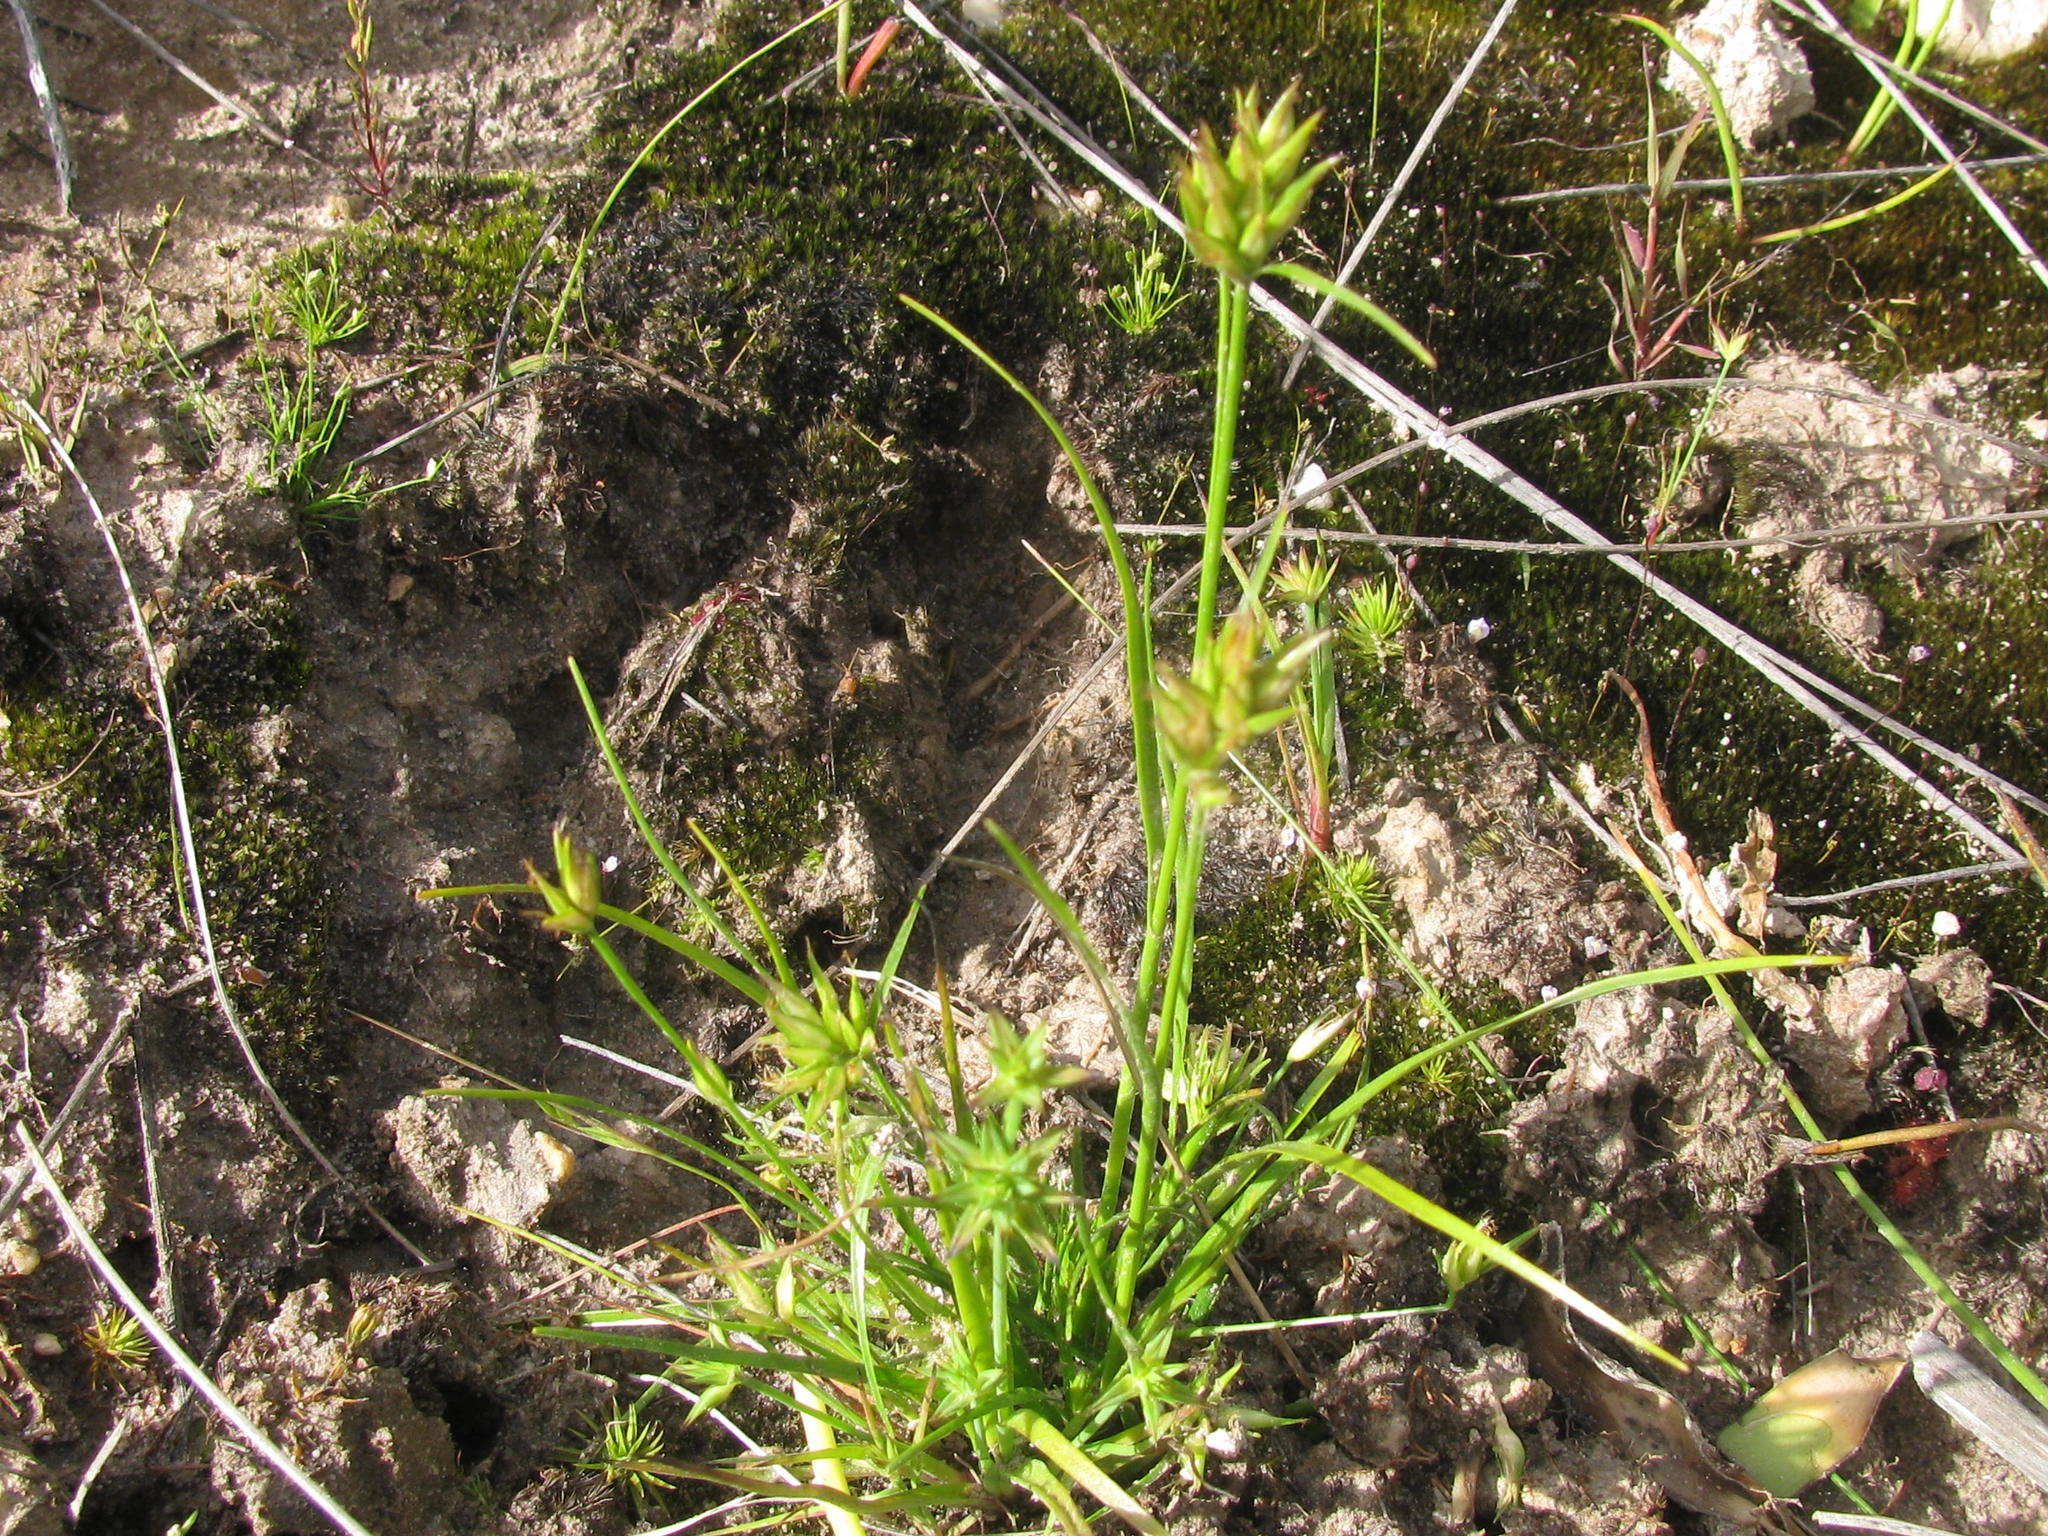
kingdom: Plantae
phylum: Tracheophyta
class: Liliopsida
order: Poales
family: Cyperaceae
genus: Trianoptiles
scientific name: Trianoptiles stipitata
